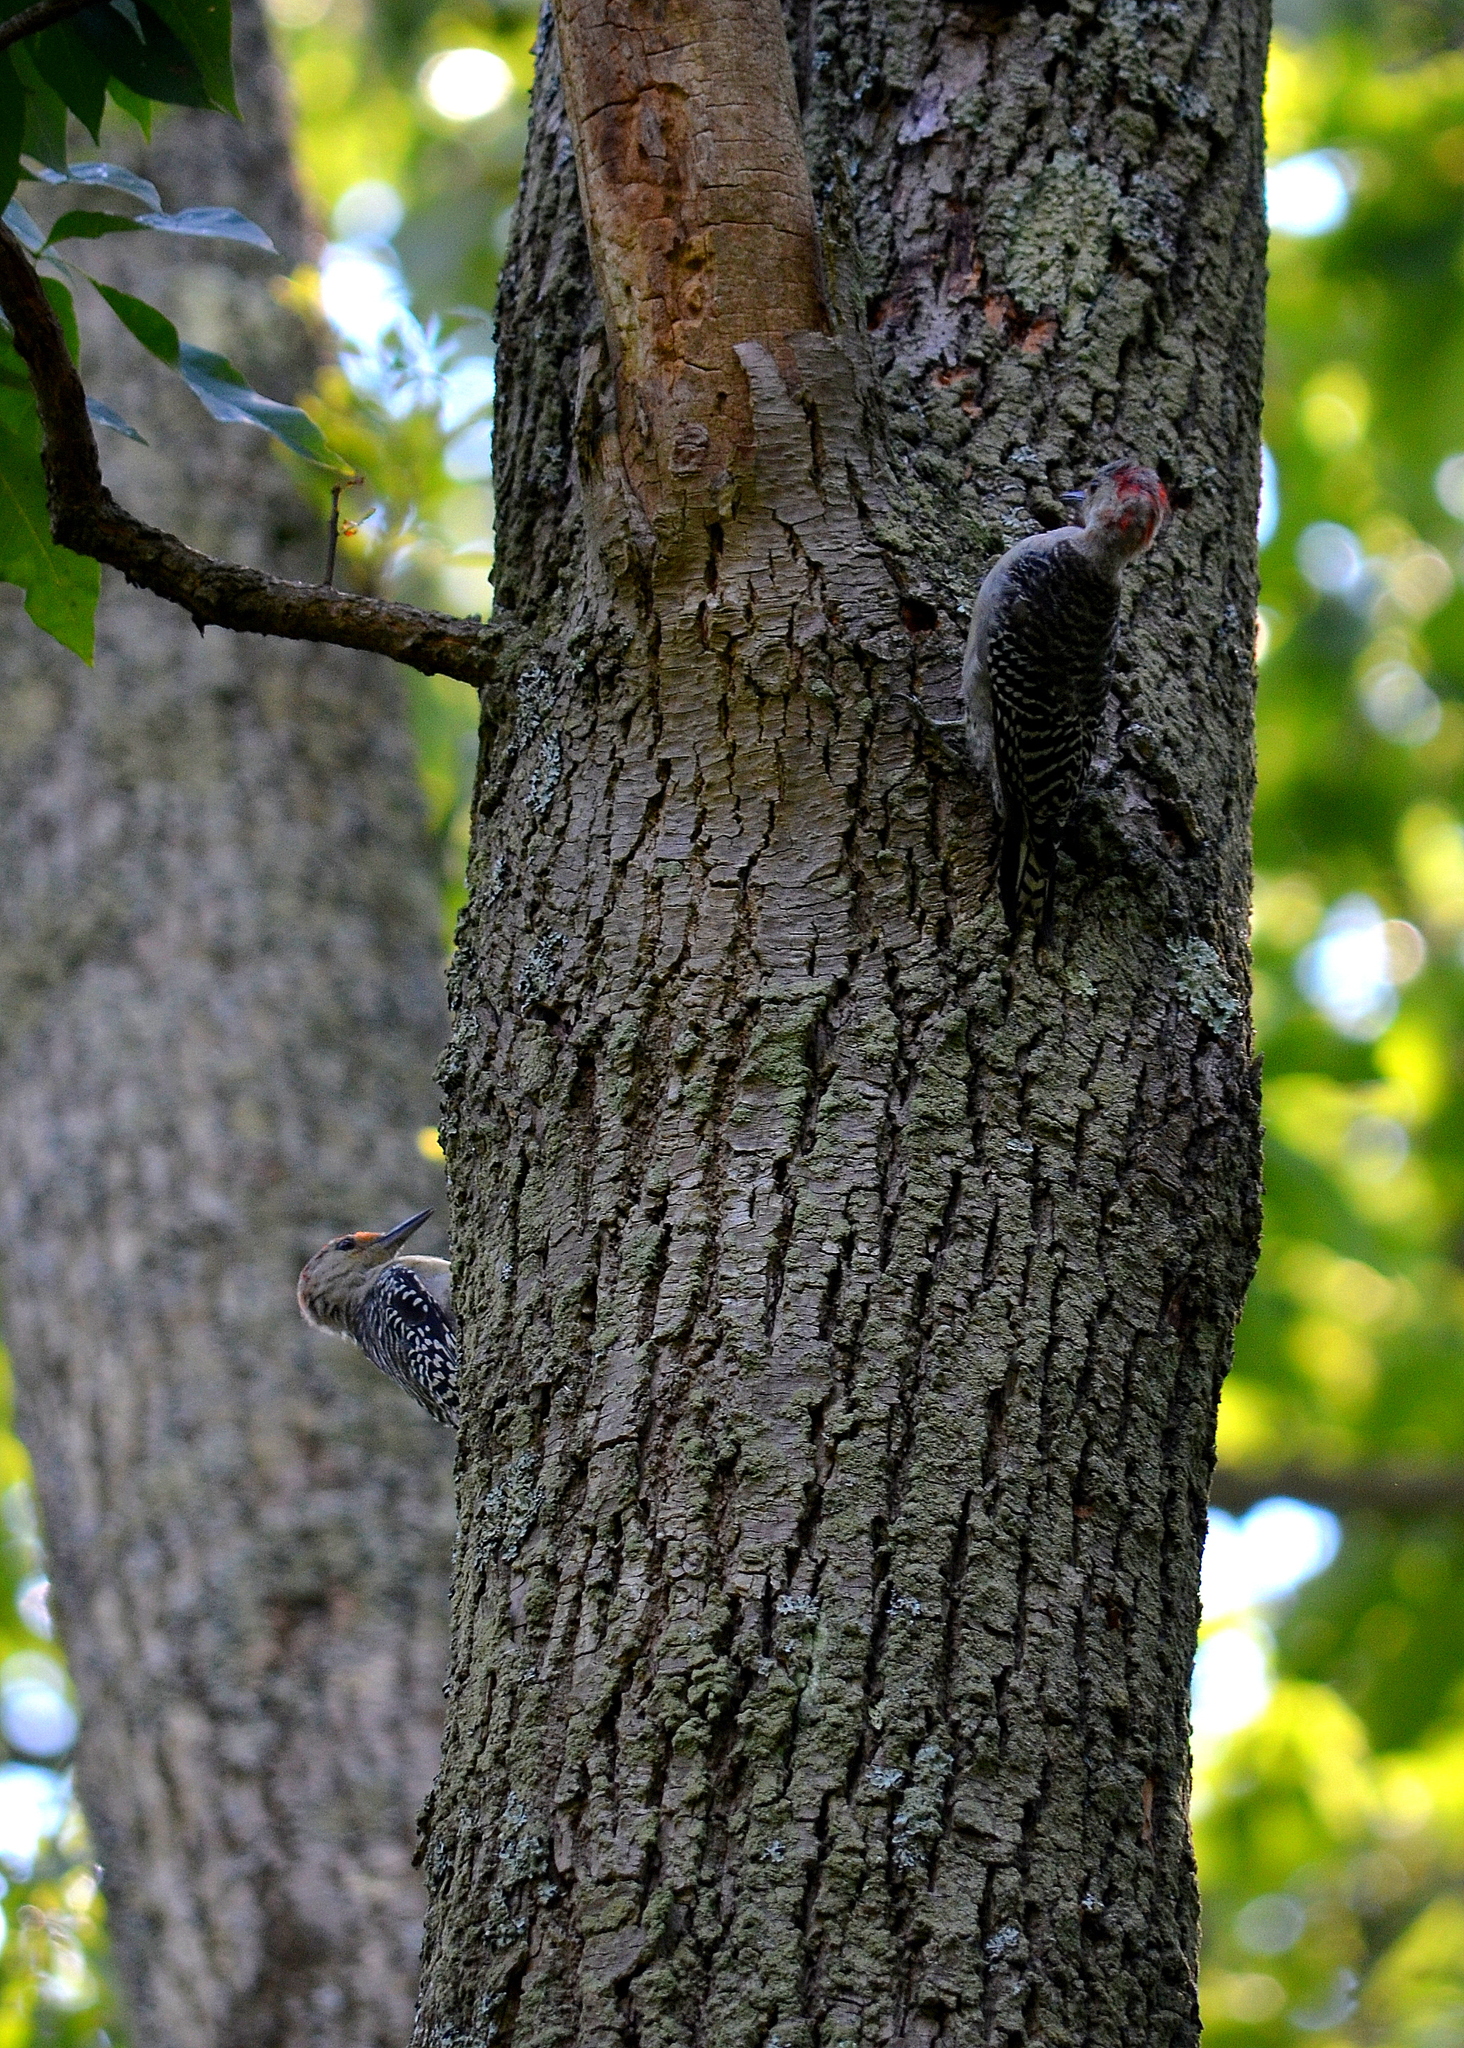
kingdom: Animalia
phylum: Chordata
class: Aves
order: Piciformes
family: Picidae
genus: Melanerpes
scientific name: Melanerpes carolinus
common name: Red-bellied woodpecker
